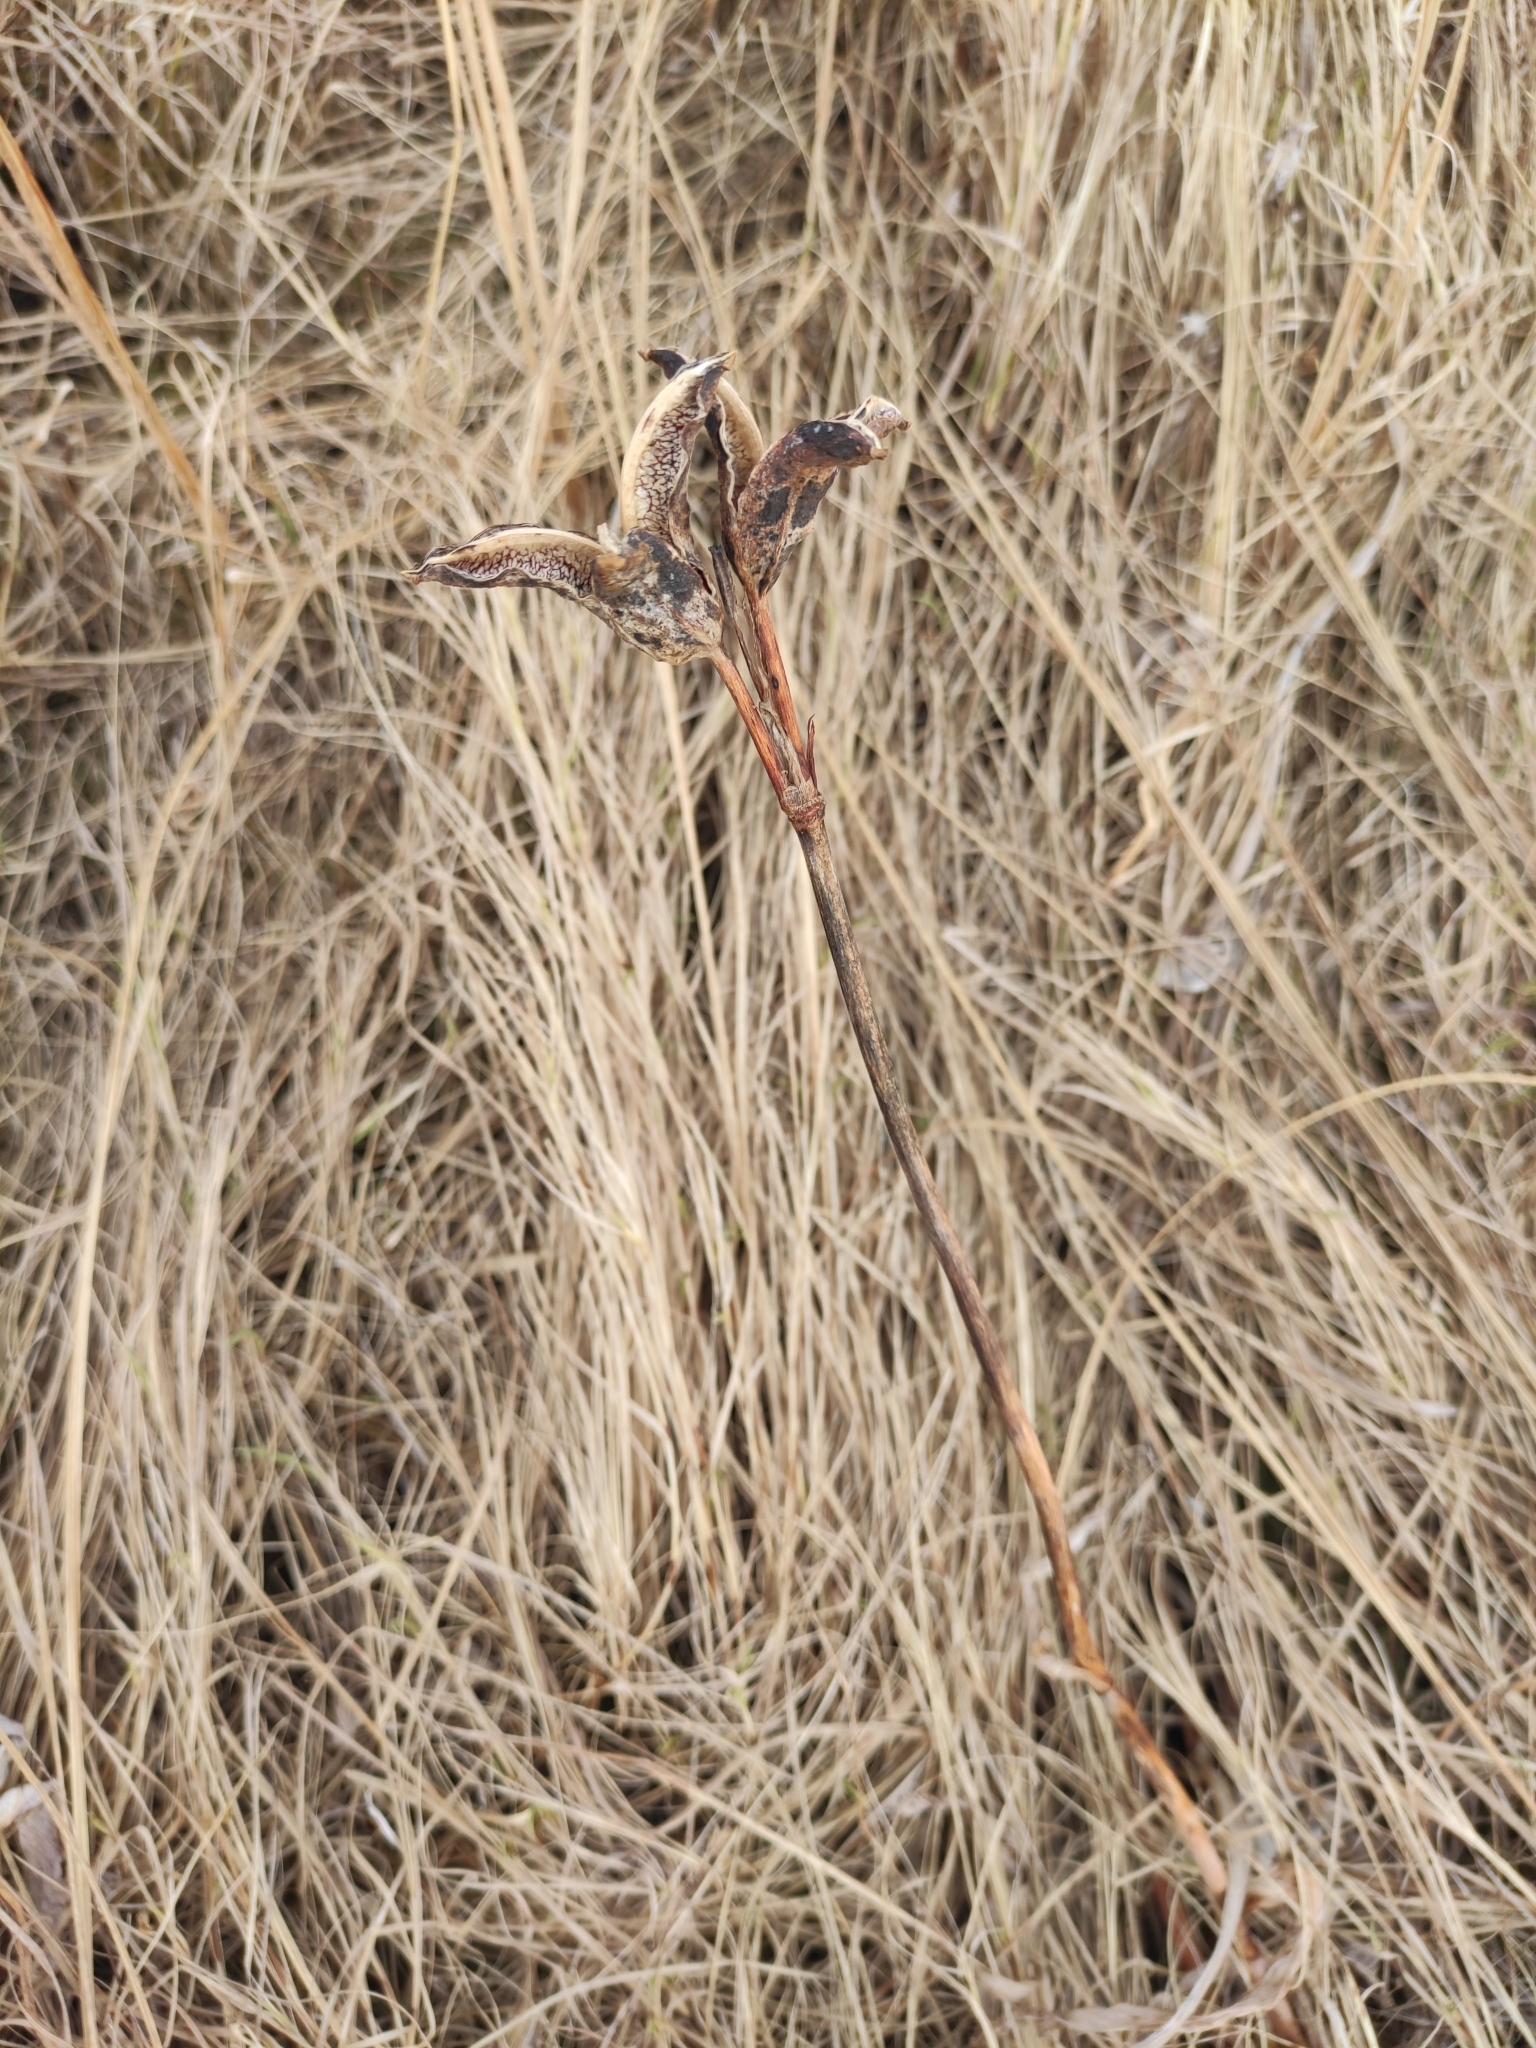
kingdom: Plantae
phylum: Tracheophyta
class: Liliopsida
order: Asparagales
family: Iridaceae
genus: Iris
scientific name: Iris laevigata
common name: Japanese iris
